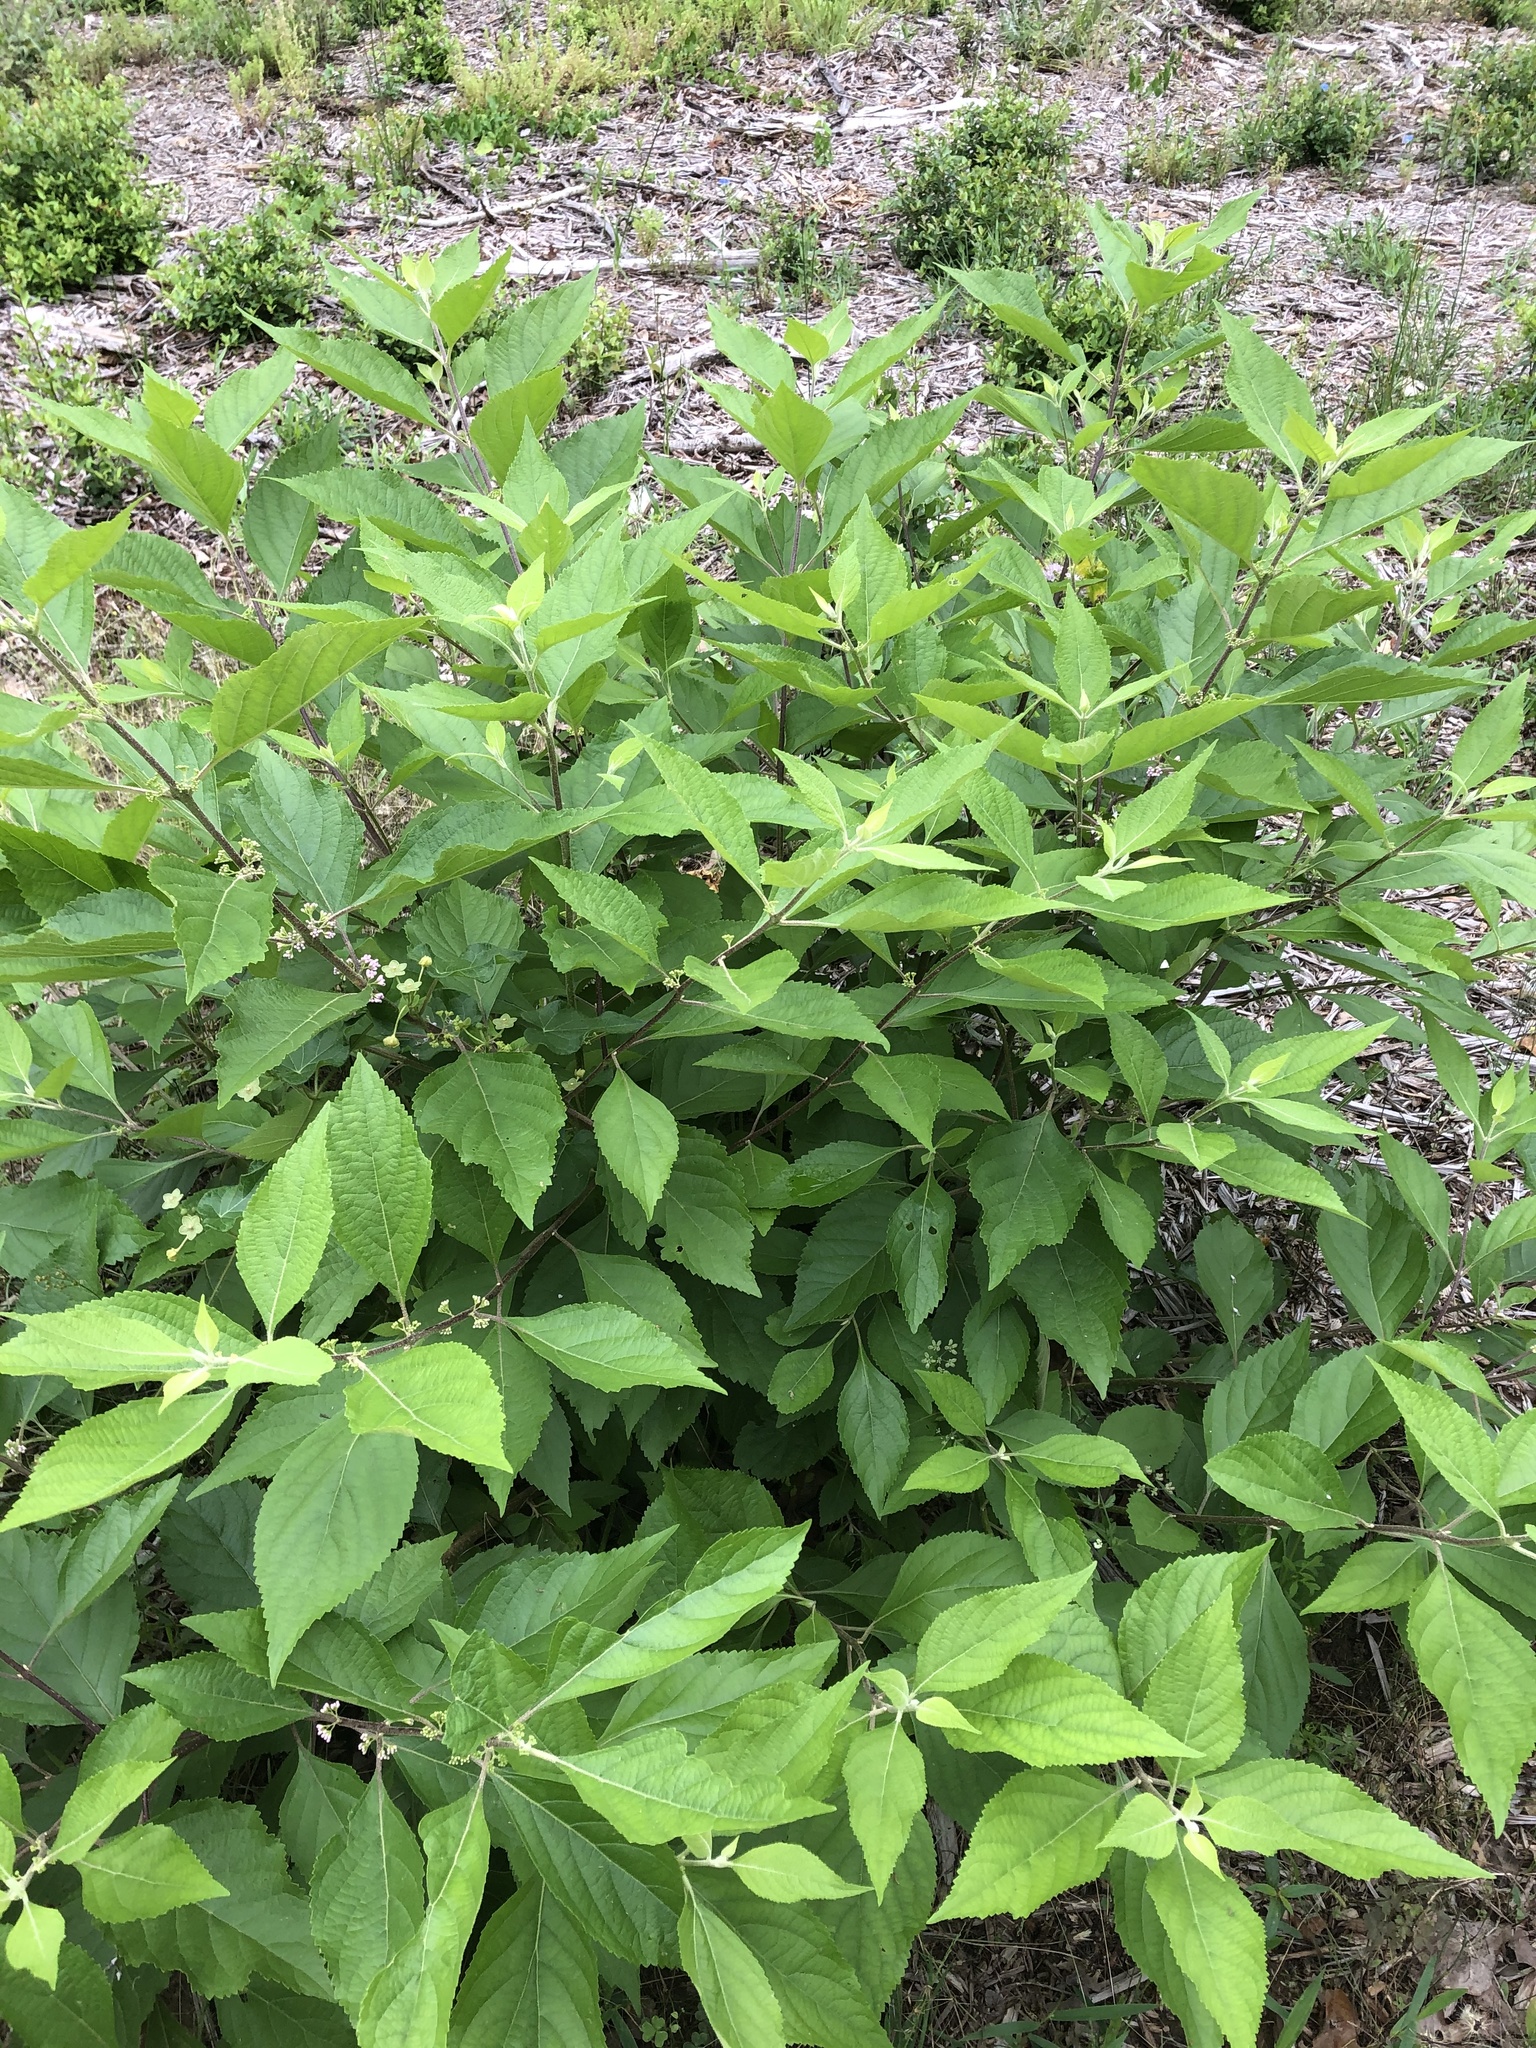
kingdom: Plantae
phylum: Tracheophyta
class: Magnoliopsida
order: Lamiales
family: Lamiaceae
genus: Callicarpa
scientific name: Callicarpa americana
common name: American beautyberry
